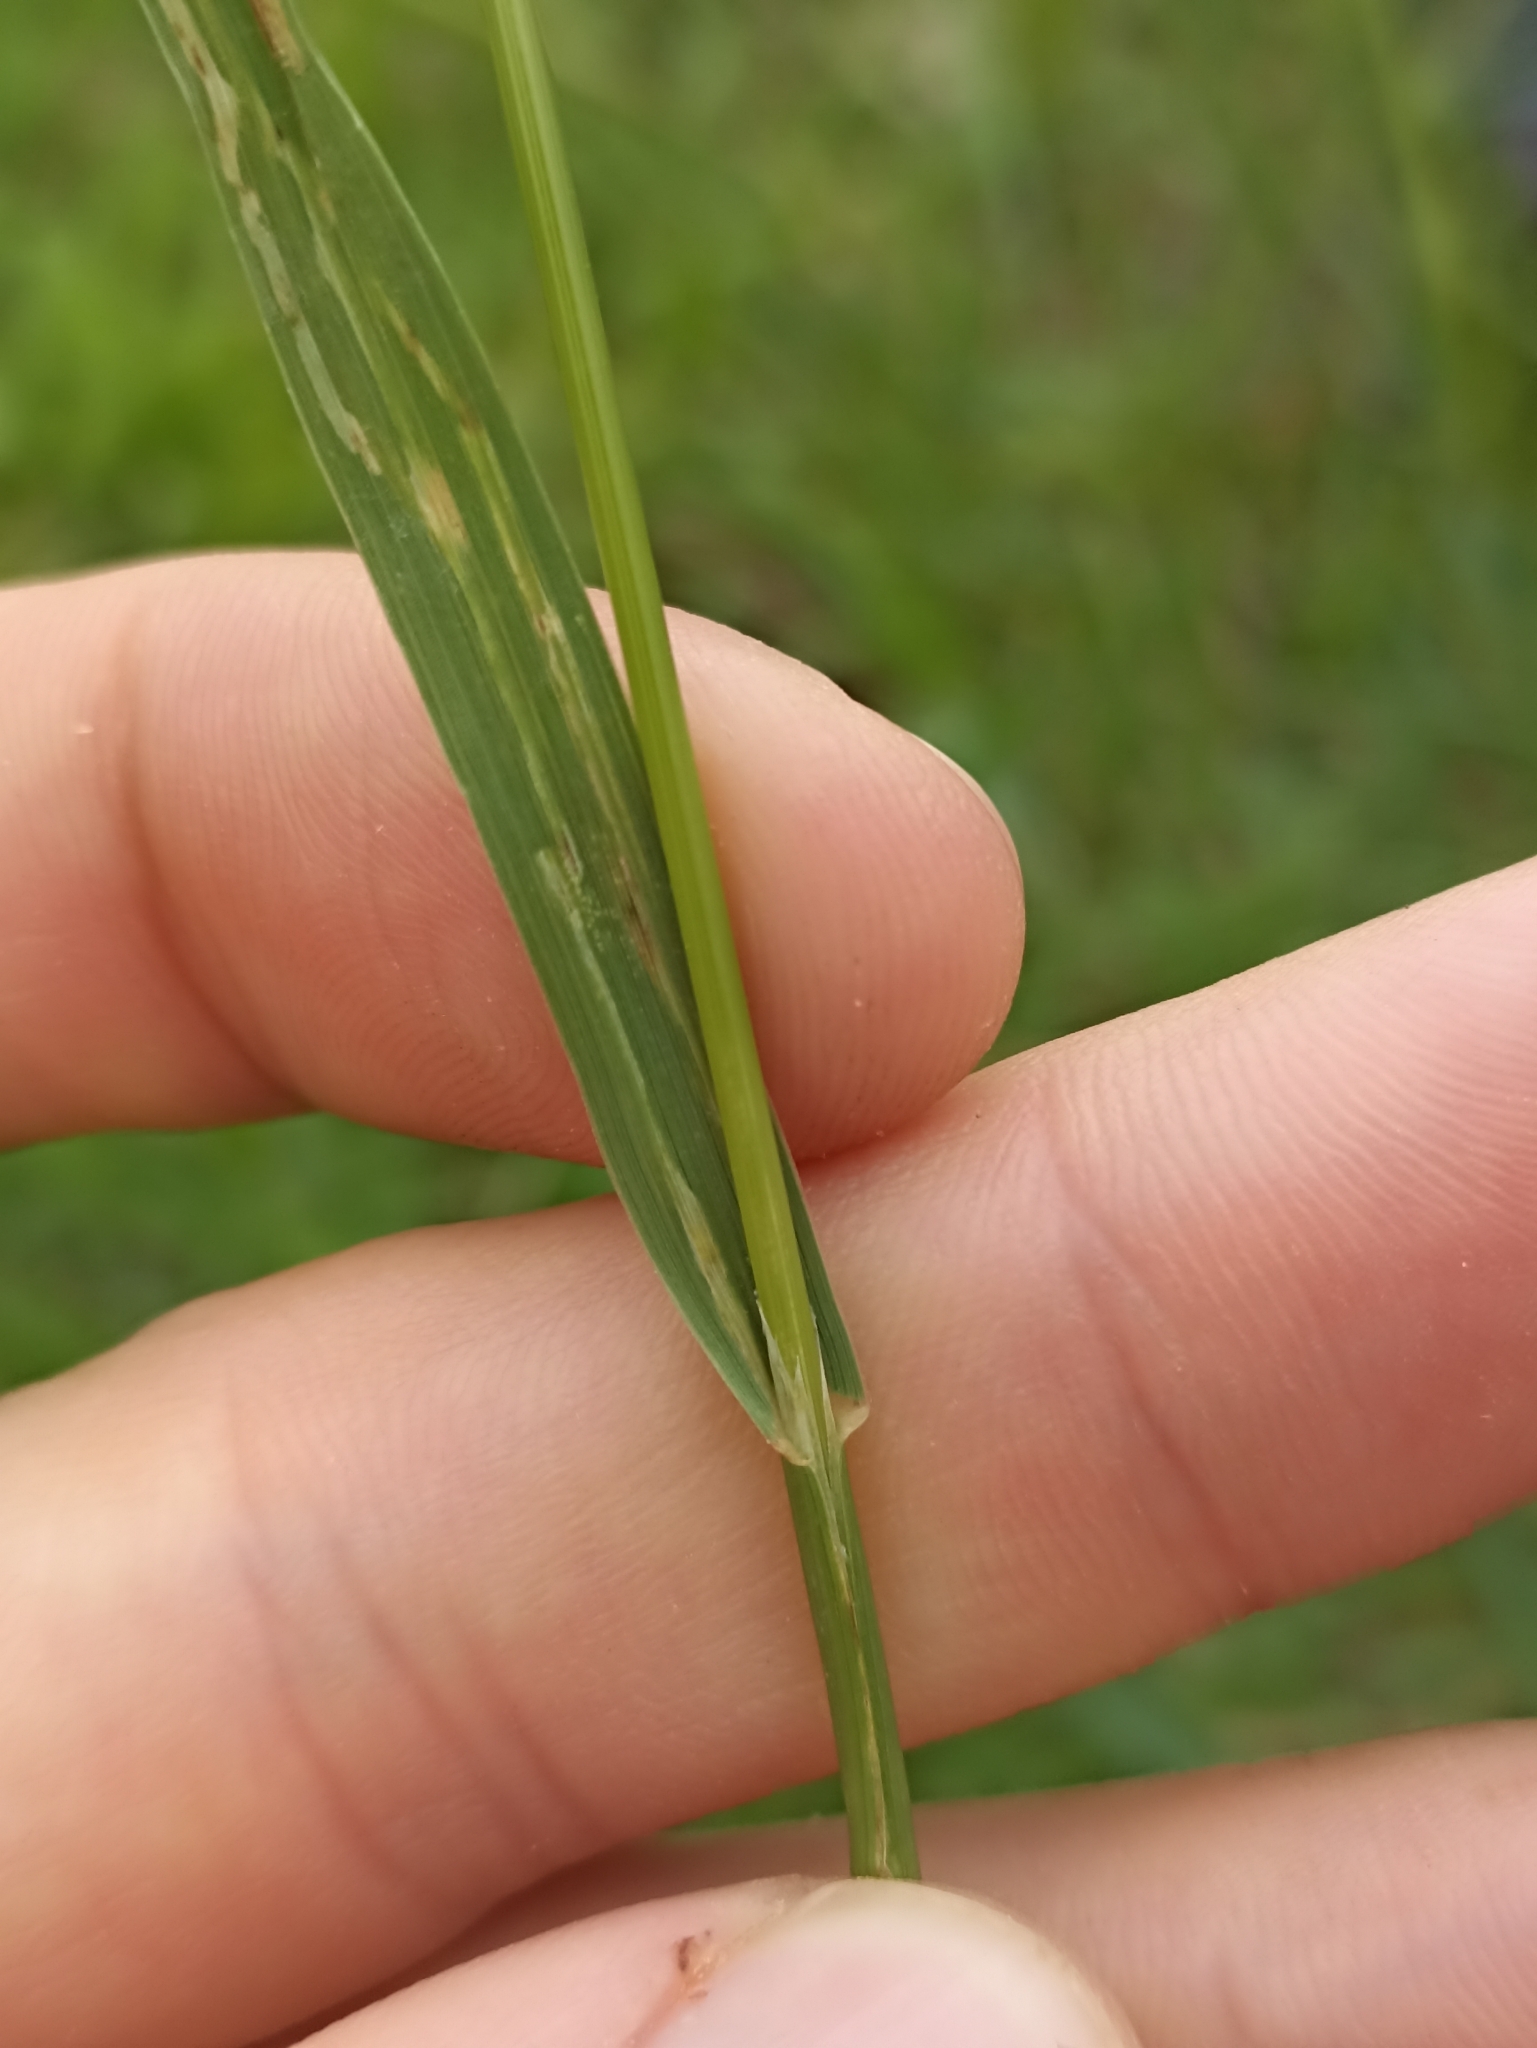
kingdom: Plantae
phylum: Tracheophyta
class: Liliopsida
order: Poales
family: Poaceae
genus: Bromus
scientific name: Bromus catharticus
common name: Rescuegrass
